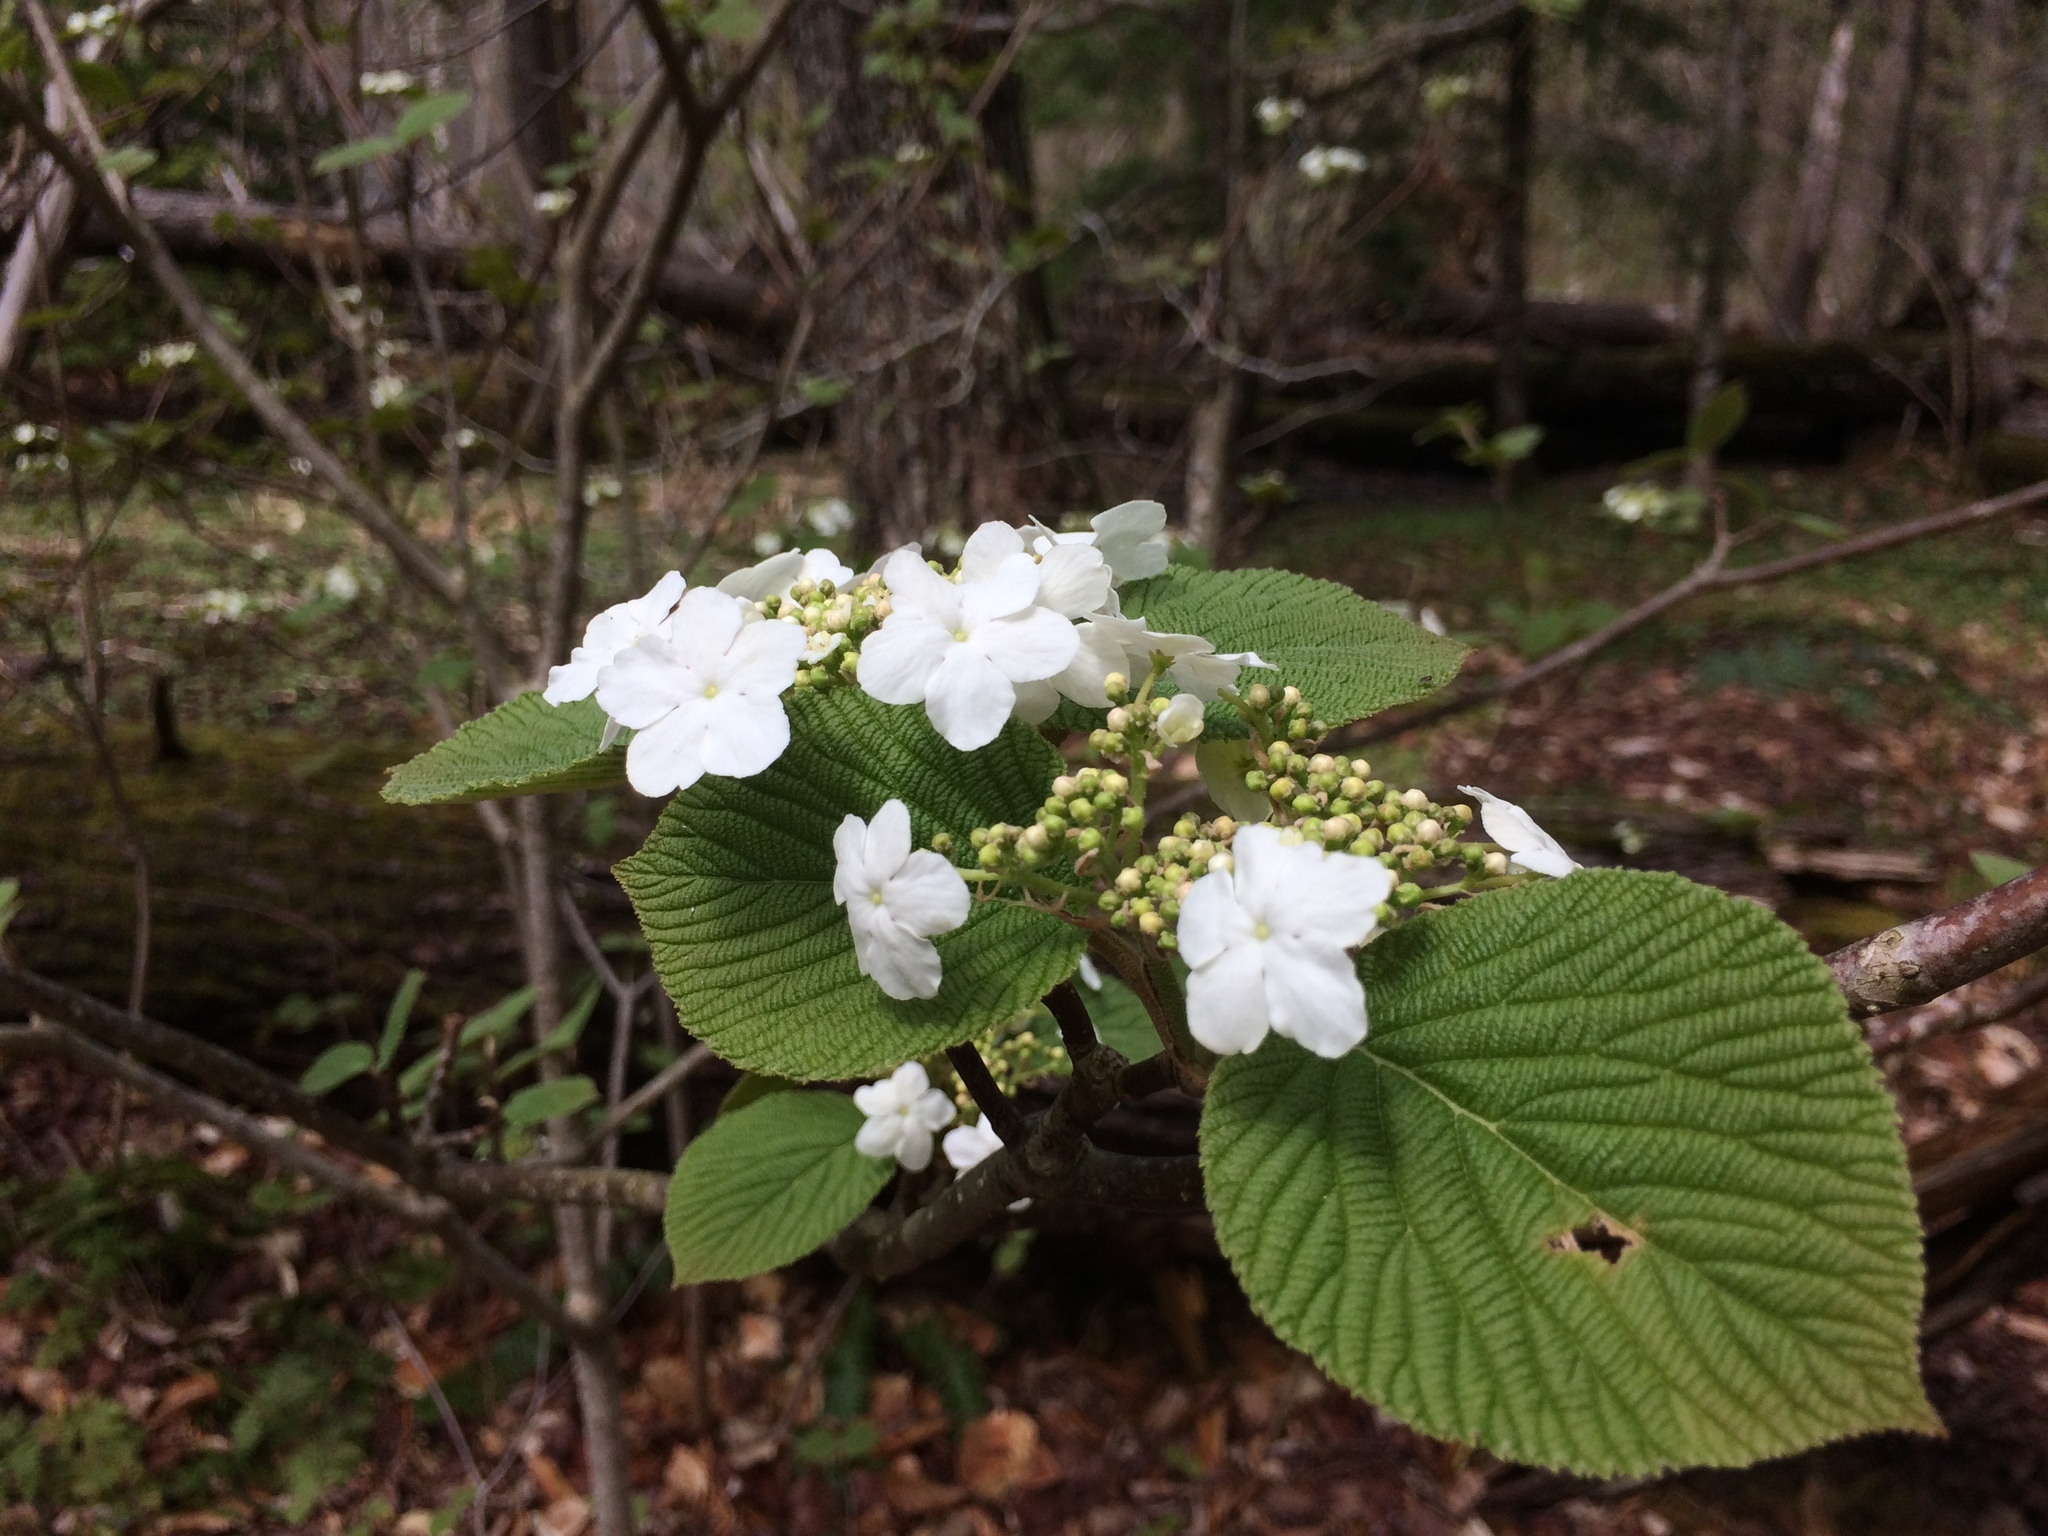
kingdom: Plantae
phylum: Tracheophyta
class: Magnoliopsida
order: Dipsacales
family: Viburnaceae
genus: Viburnum
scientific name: Viburnum lantanoides
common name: Hobblebush
